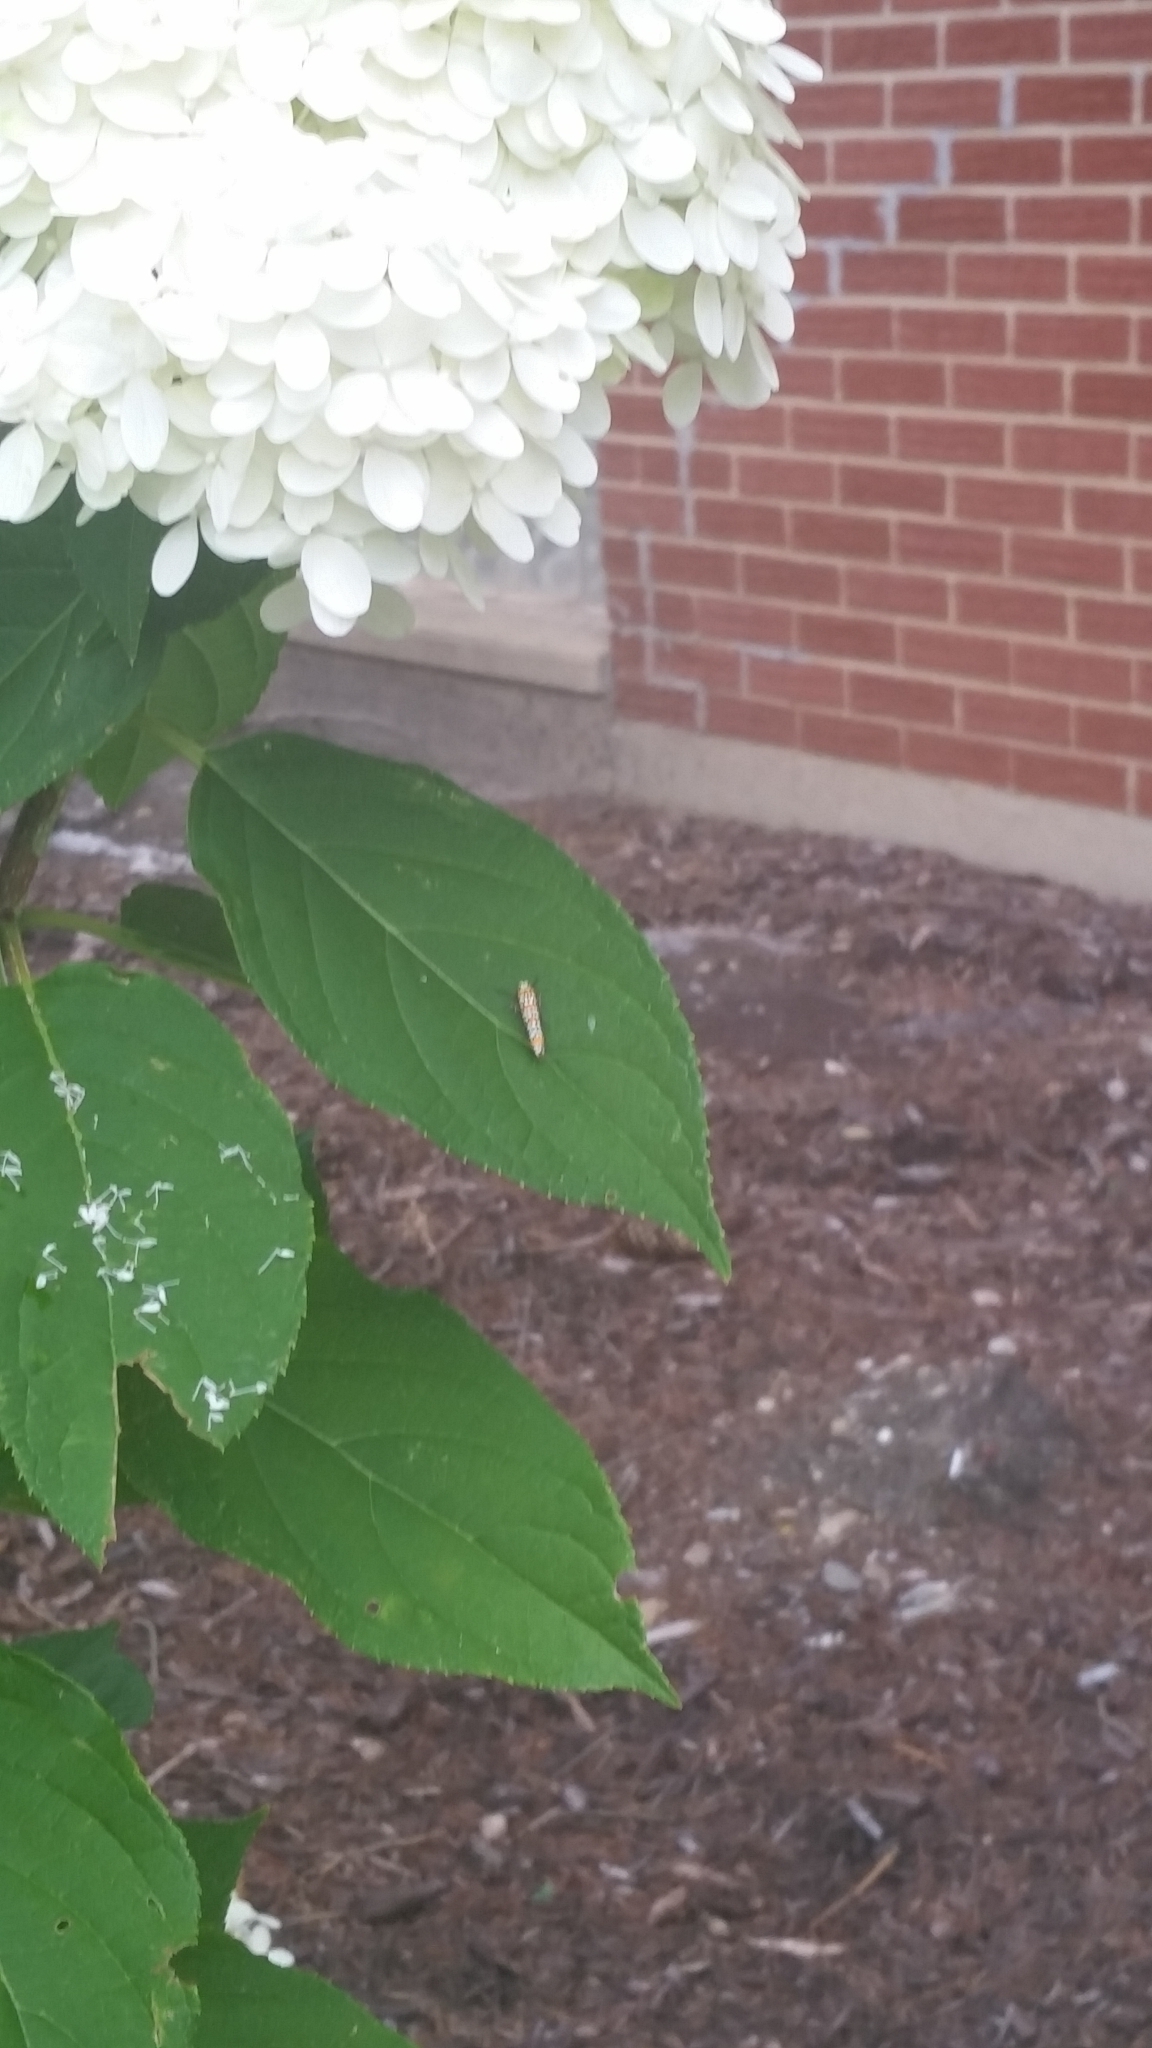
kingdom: Animalia
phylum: Arthropoda
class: Insecta
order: Lepidoptera
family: Attevidae
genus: Atteva
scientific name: Atteva punctella
